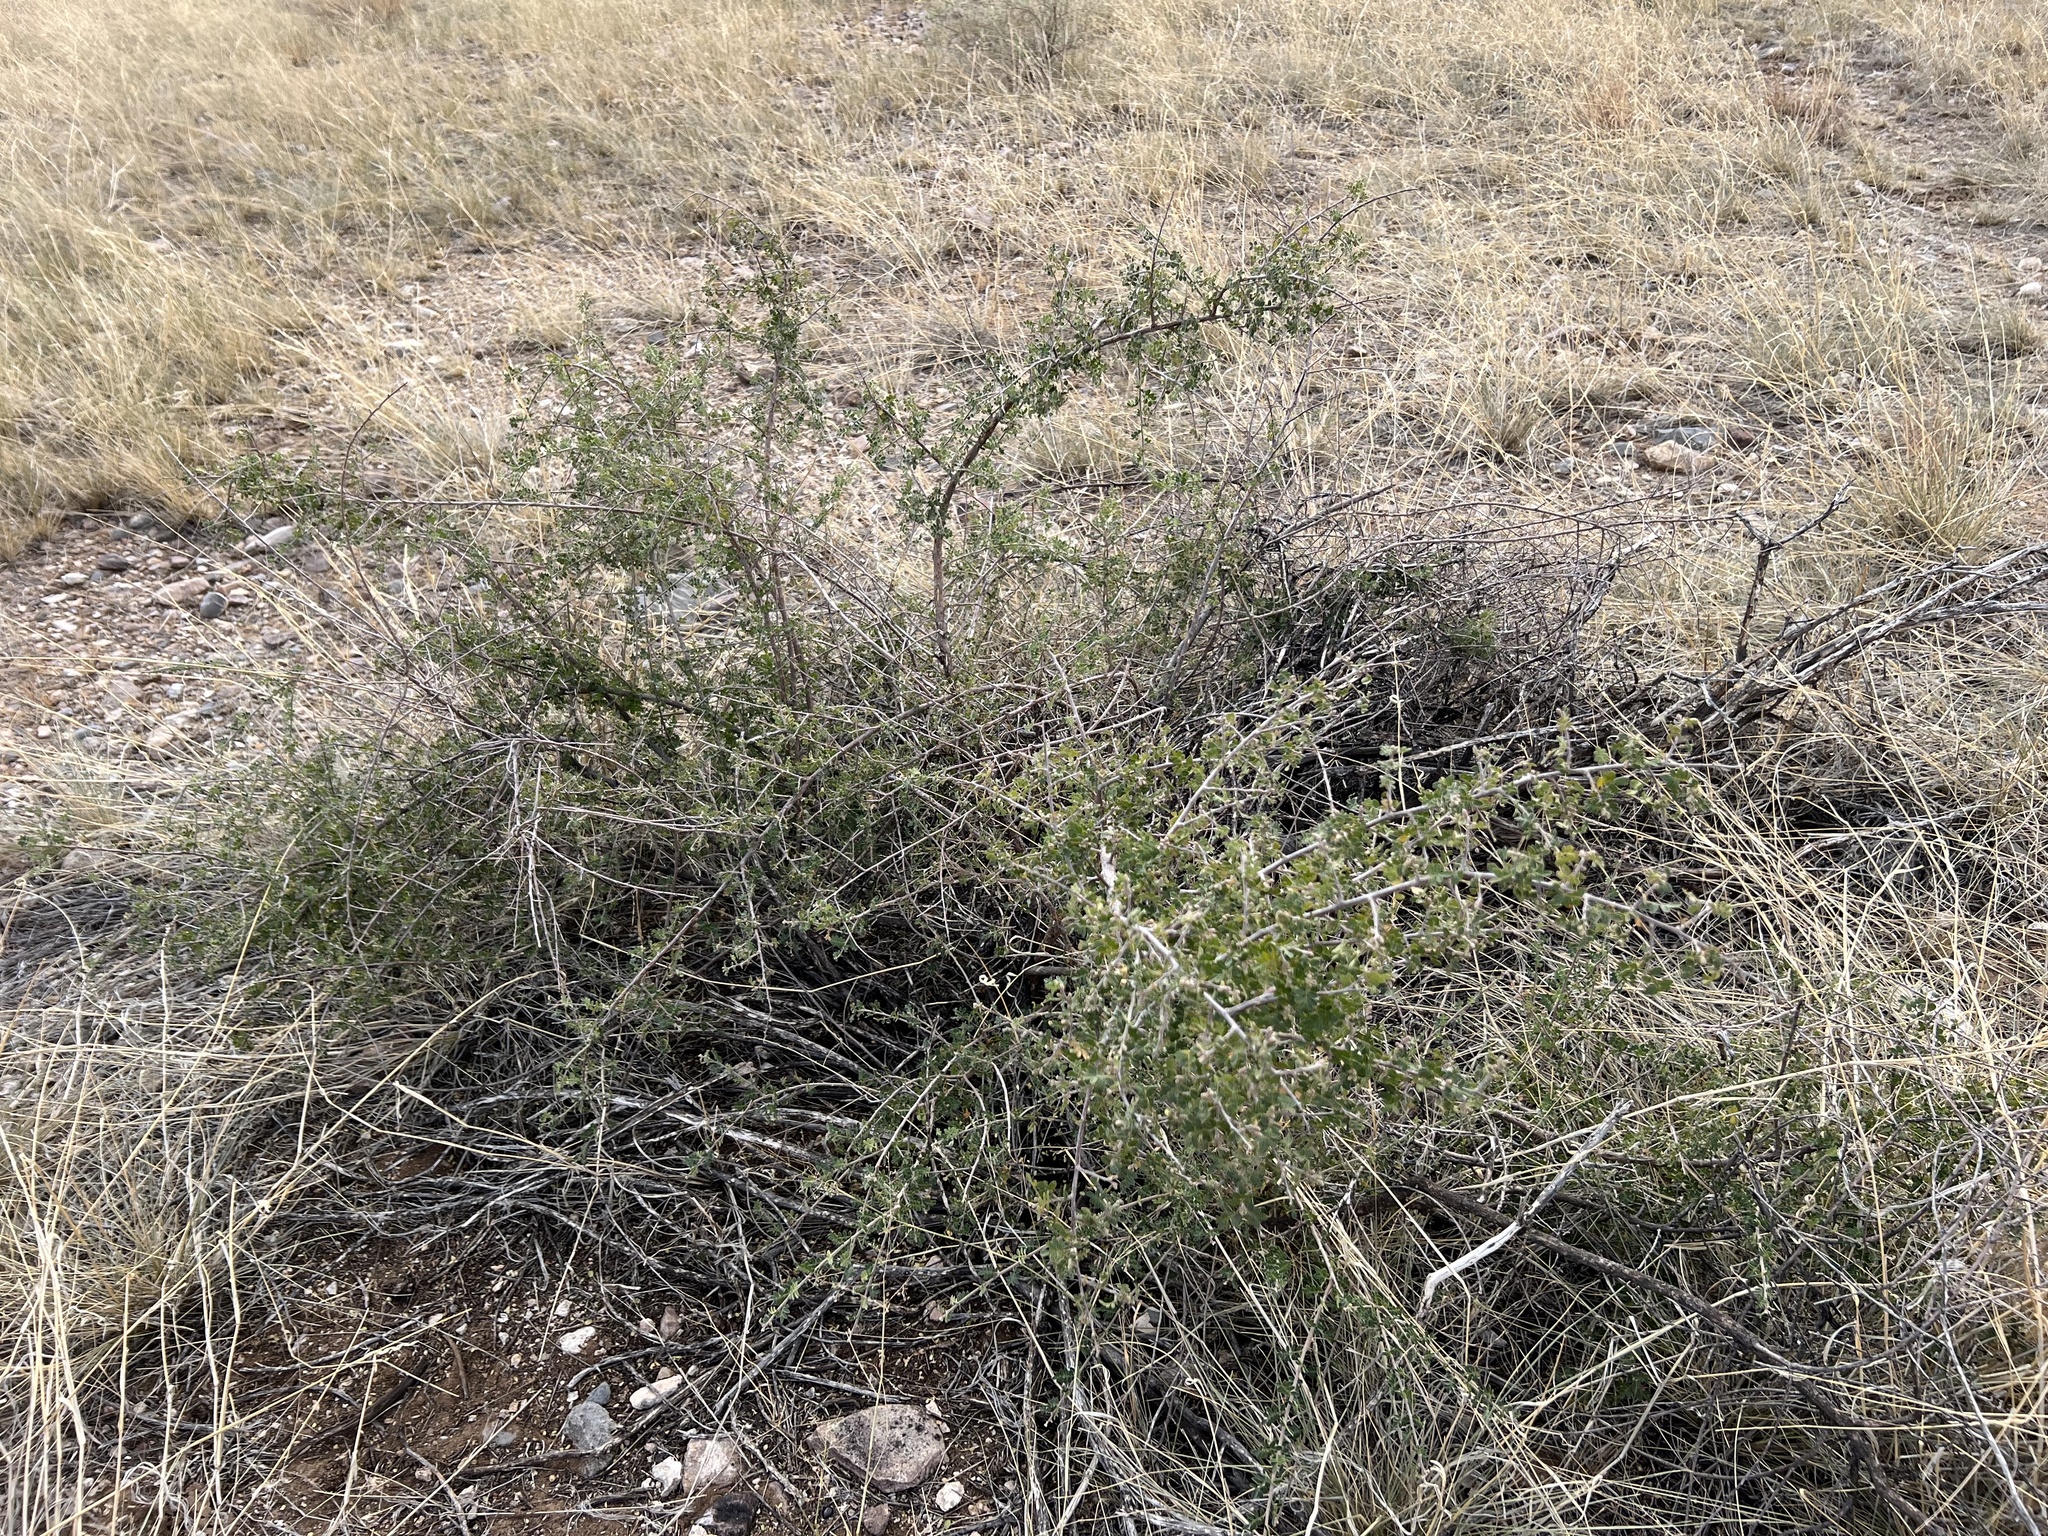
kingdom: Plantae
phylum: Tracheophyta
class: Magnoliopsida
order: Sapindales
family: Anacardiaceae
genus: Rhus
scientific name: Rhus microphylla
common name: Desert sumac
